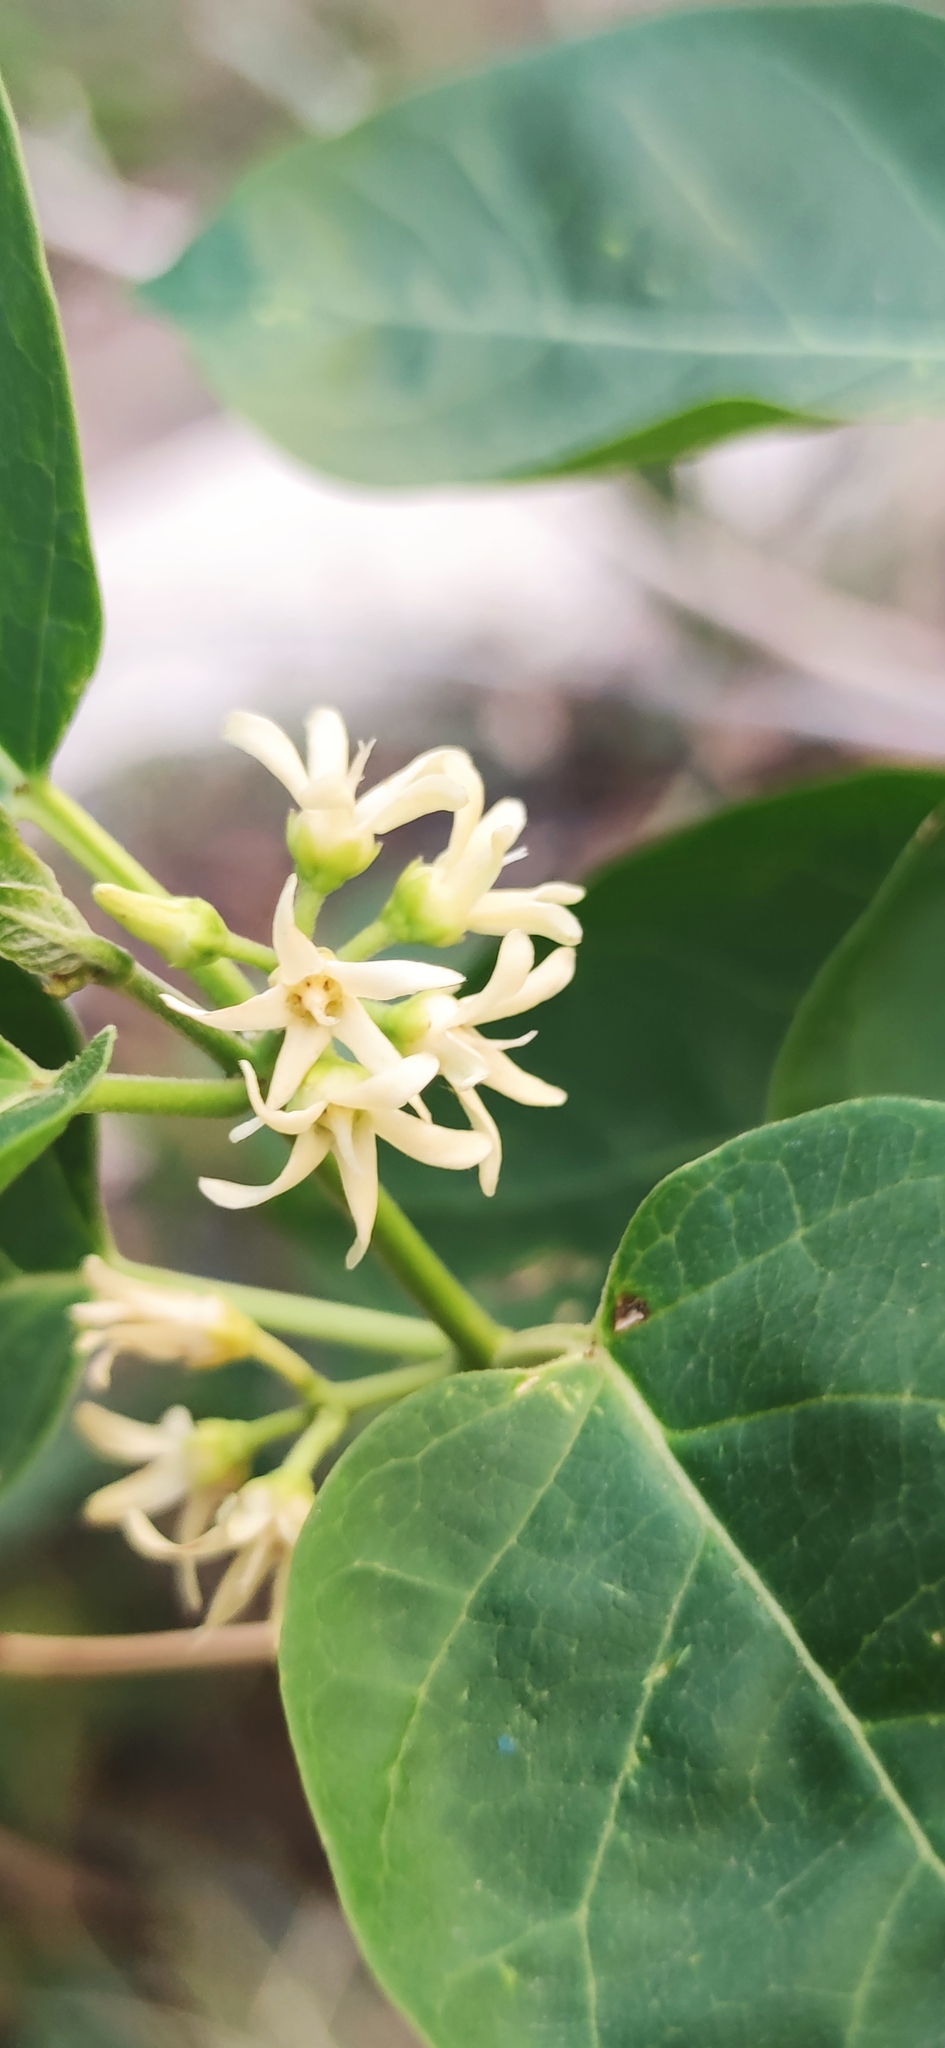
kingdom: Plantae
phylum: Tracheophyta
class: Magnoliopsida
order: Gentianales
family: Apocynaceae
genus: Ruehssia
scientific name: Ruehssia pringlei
